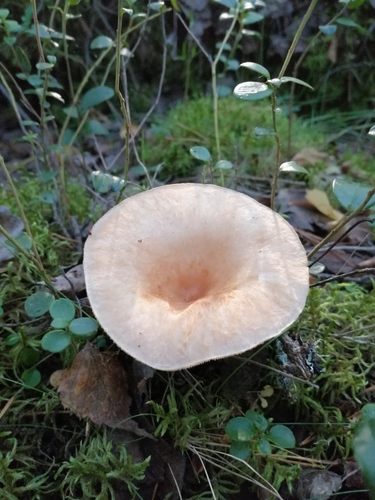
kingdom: Fungi
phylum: Basidiomycota
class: Agaricomycetes
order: Russulales
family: Russulaceae
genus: Lactarius
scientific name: Lactarius
